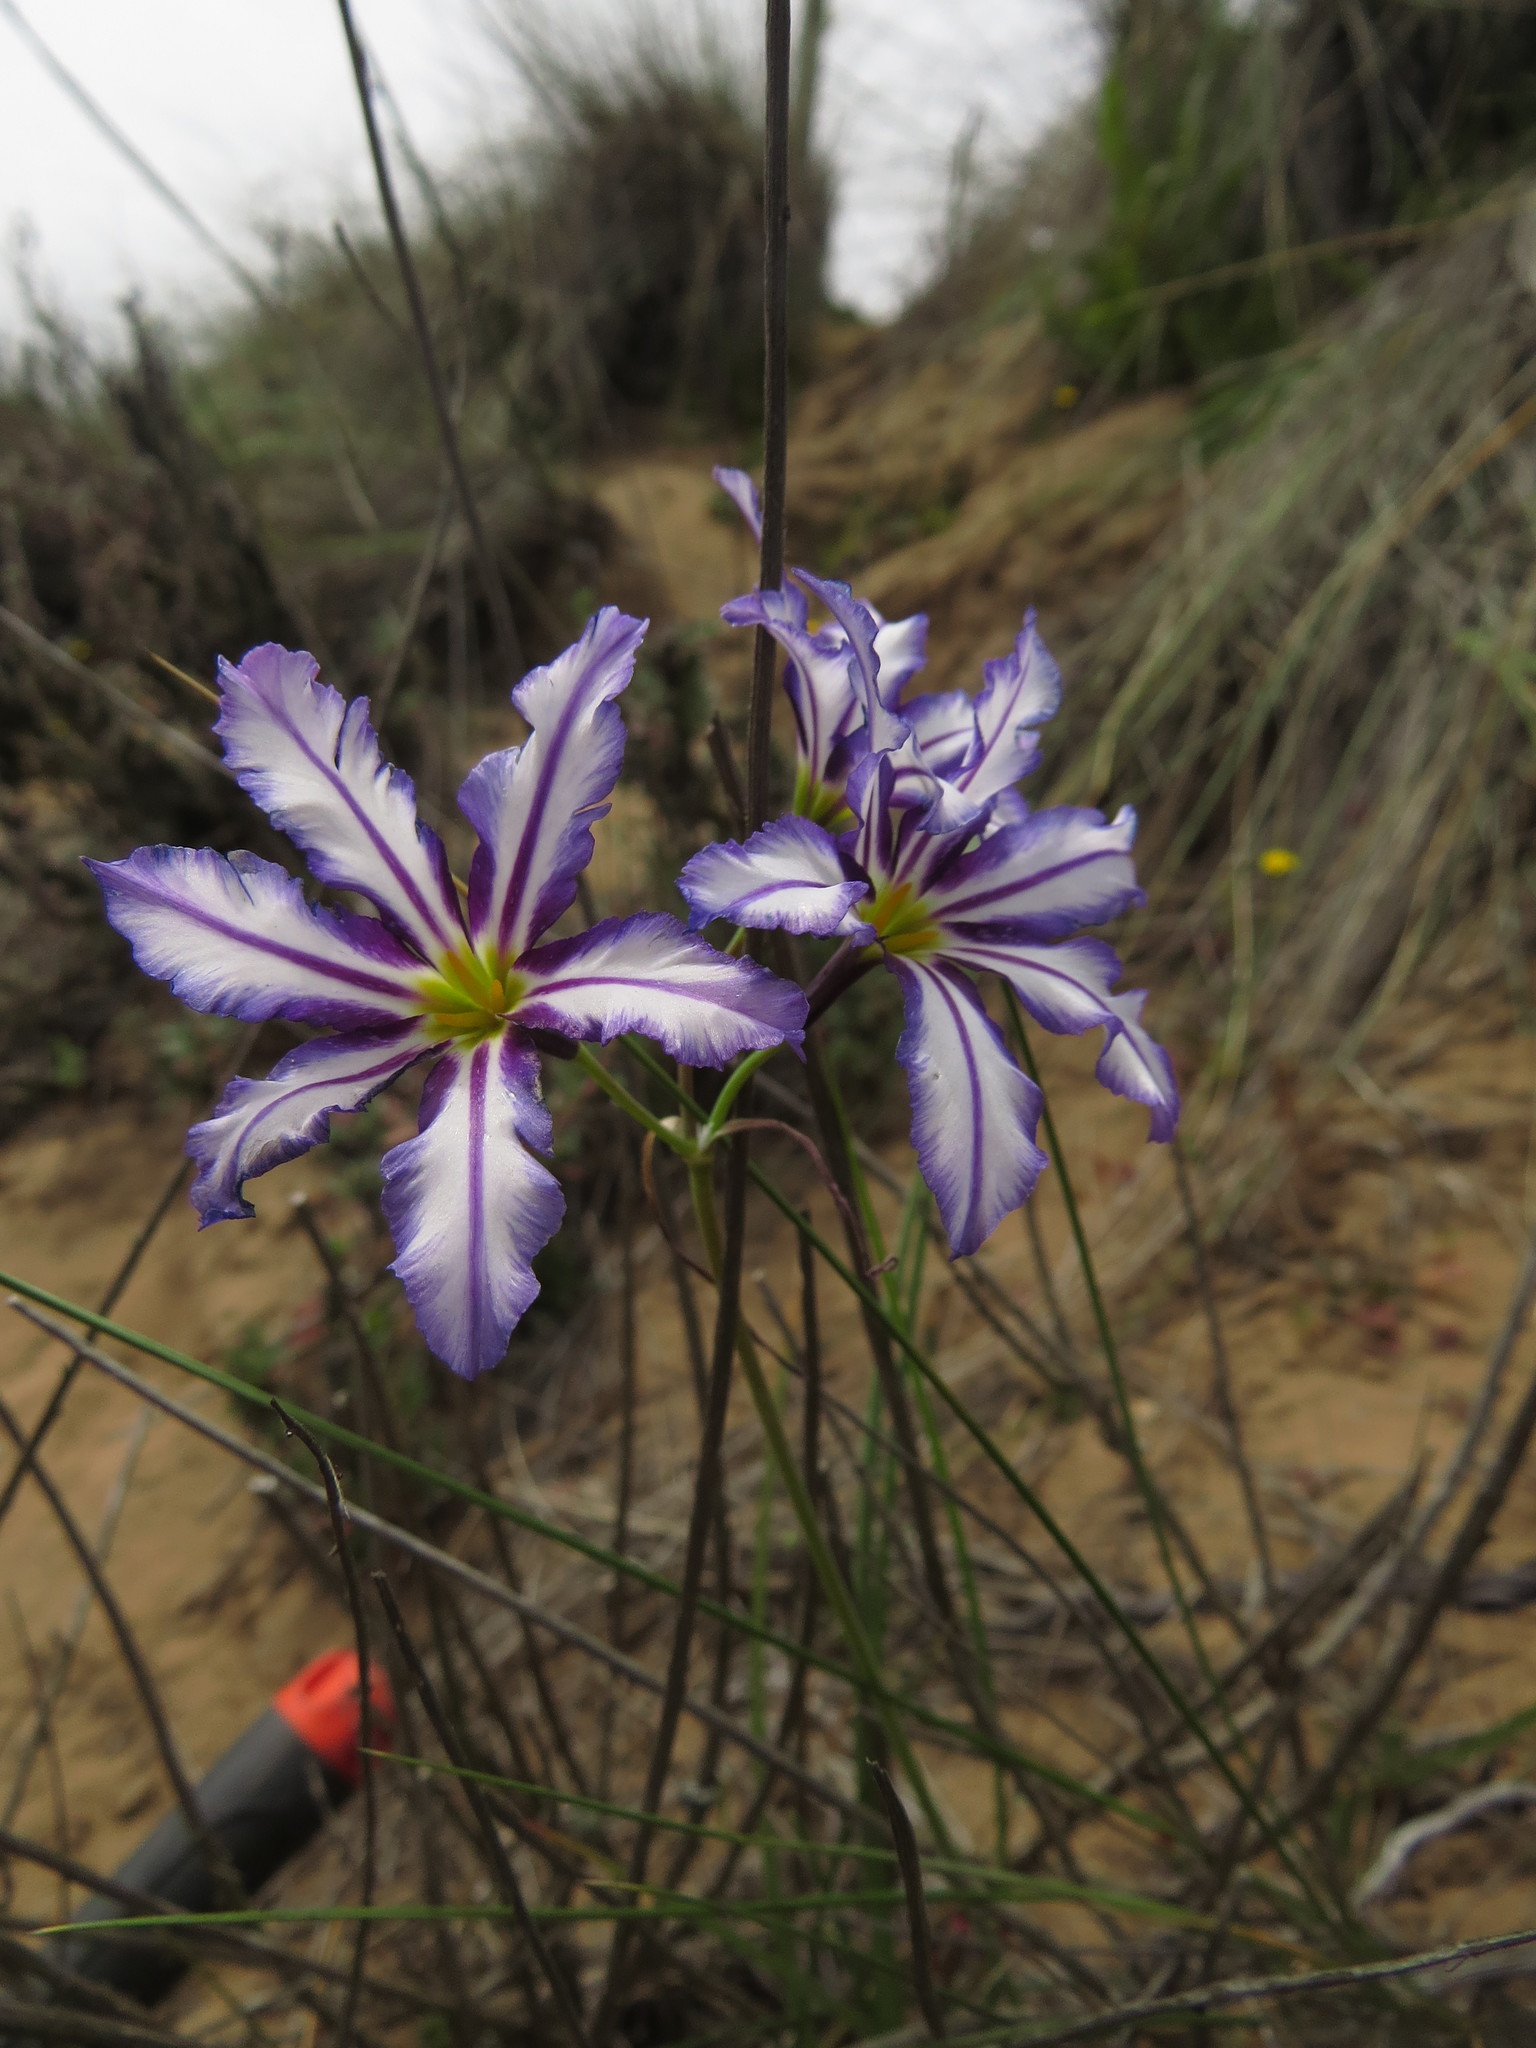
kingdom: Plantae
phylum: Tracheophyta
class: Liliopsida
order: Asparagales
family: Amaryllidaceae
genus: Leucocoryne
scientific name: Leucocoryne vittata
